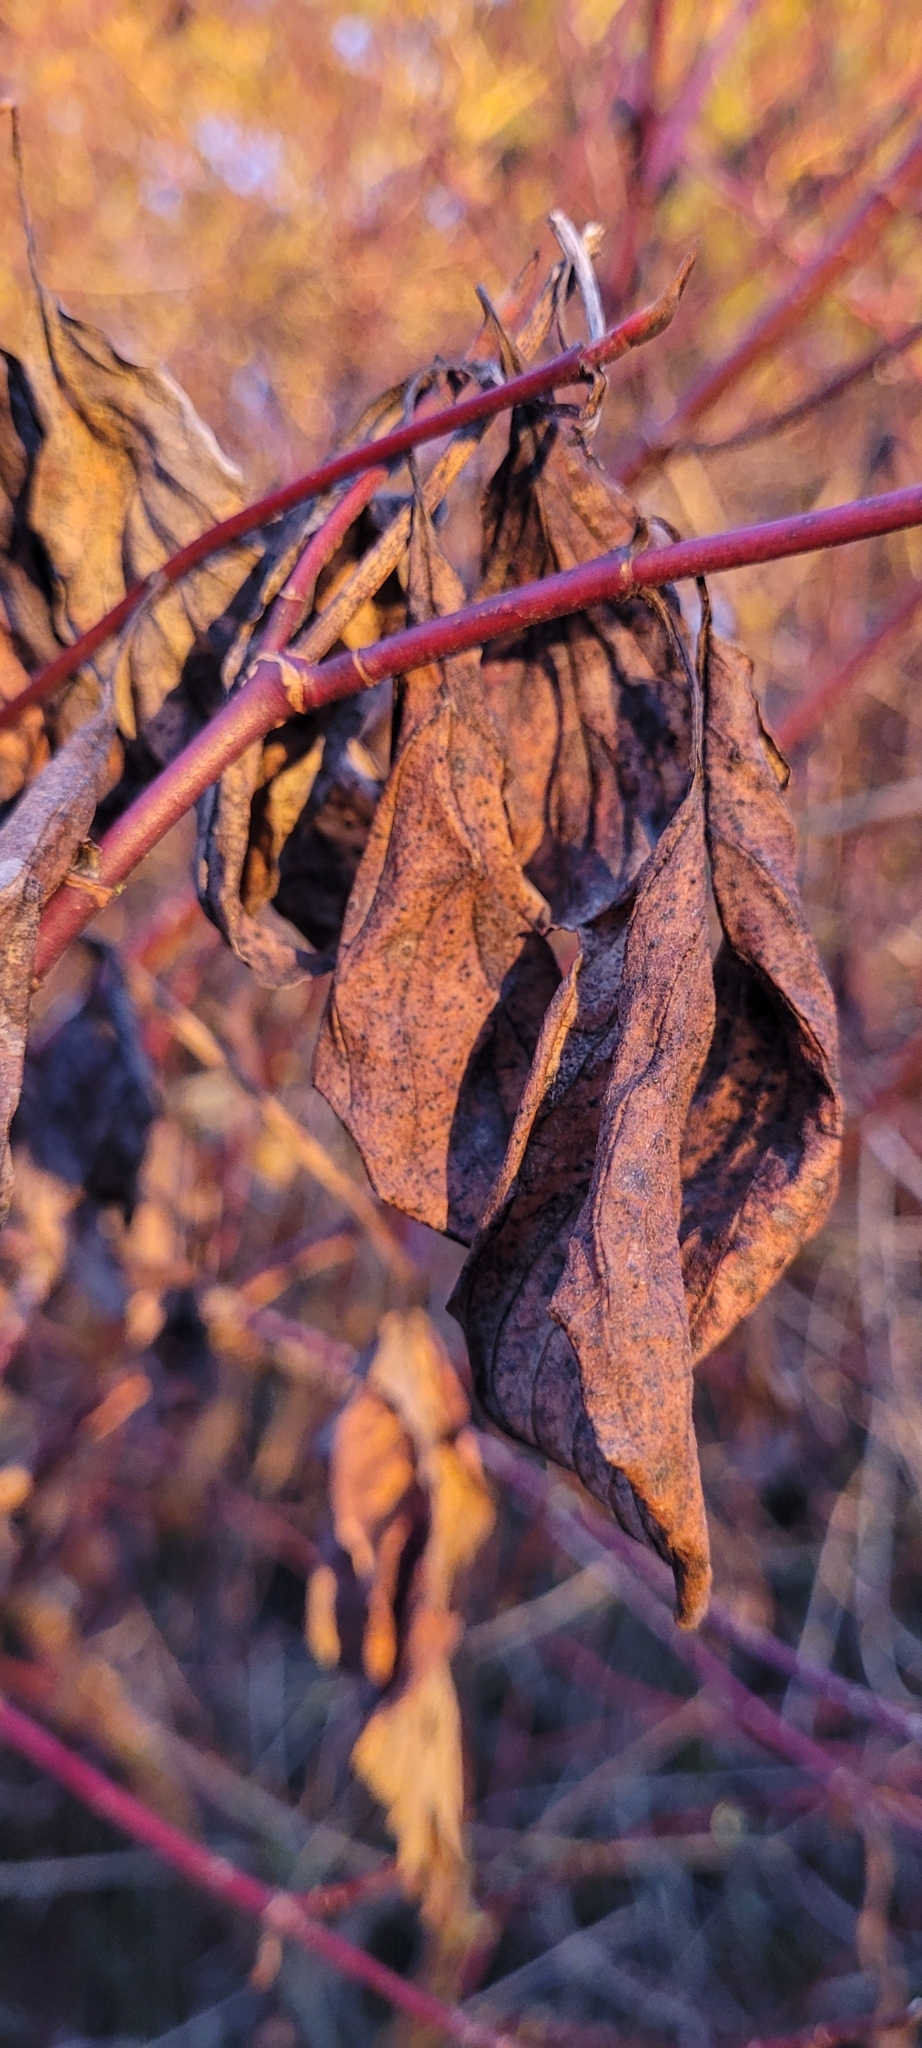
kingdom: Plantae
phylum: Tracheophyta
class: Magnoliopsida
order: Cornales
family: Cornaceae
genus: Cornus
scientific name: Cornus sericea
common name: Red-osier dogwood
